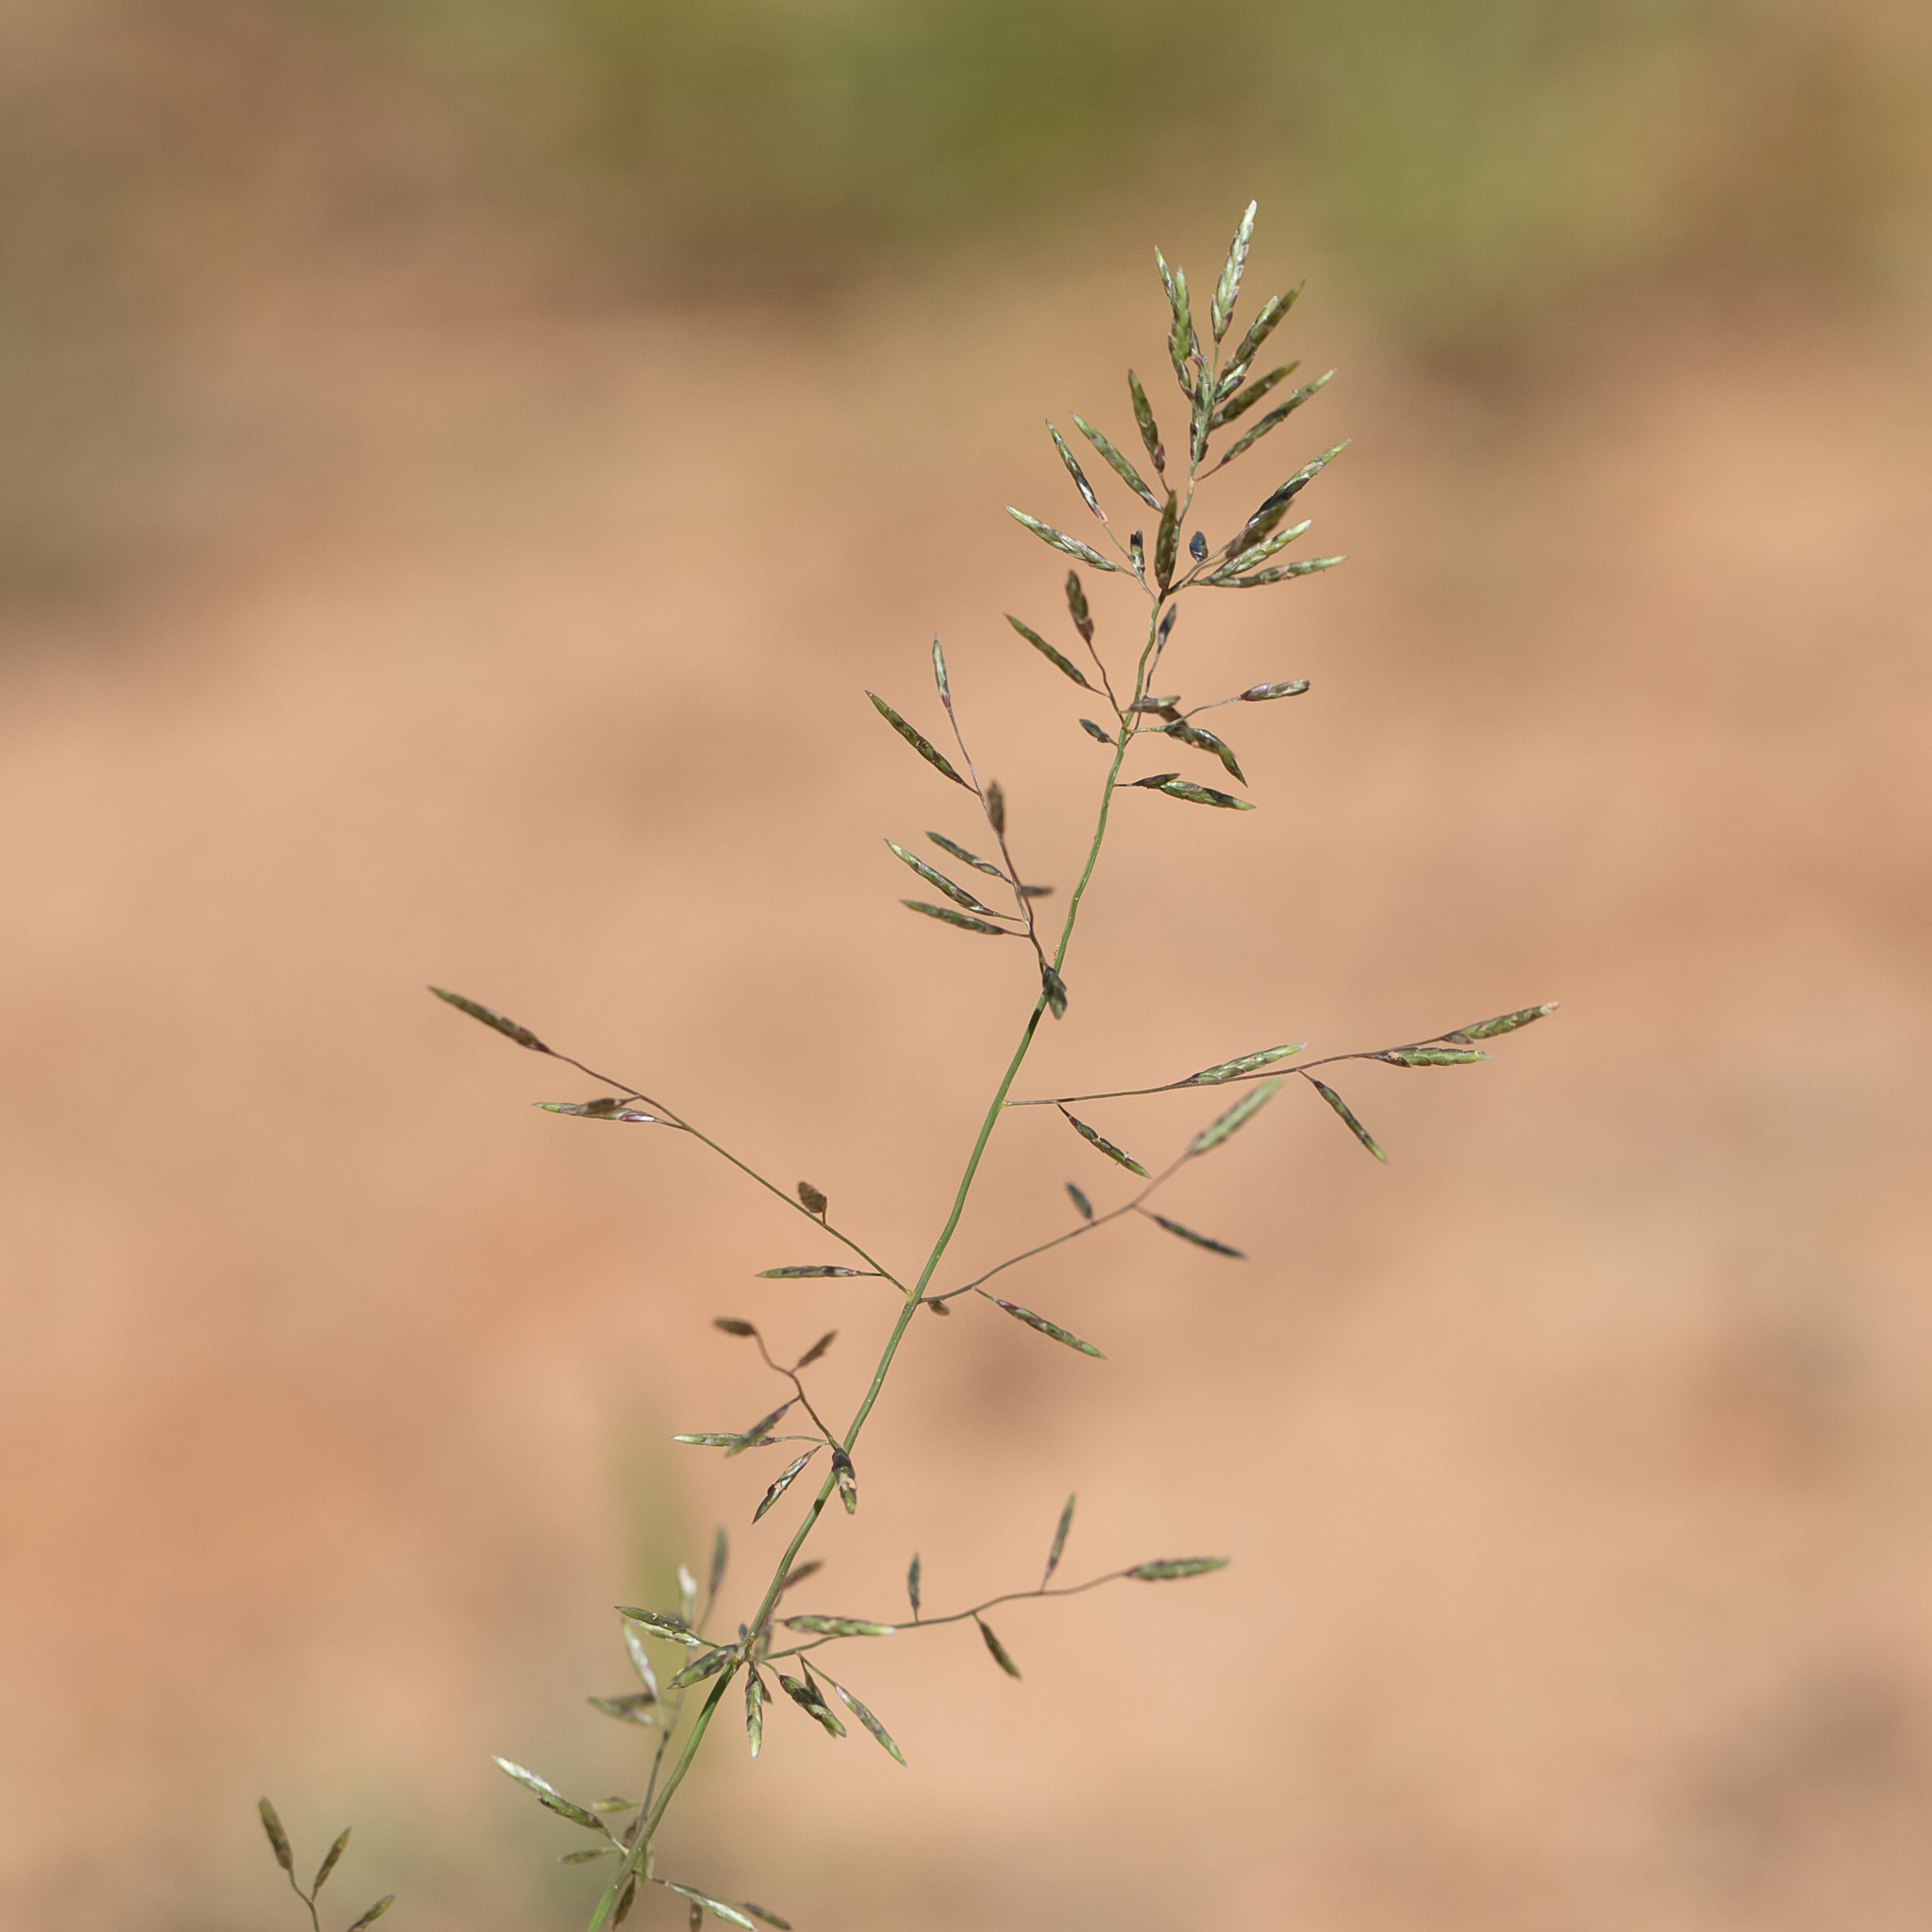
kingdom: Plantae
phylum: Tracheophyta
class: Liliopsida
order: Poales
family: Poaceae
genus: Eragrostis
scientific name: Eragrostis barrelieri
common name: Mediterranean lovegrass
